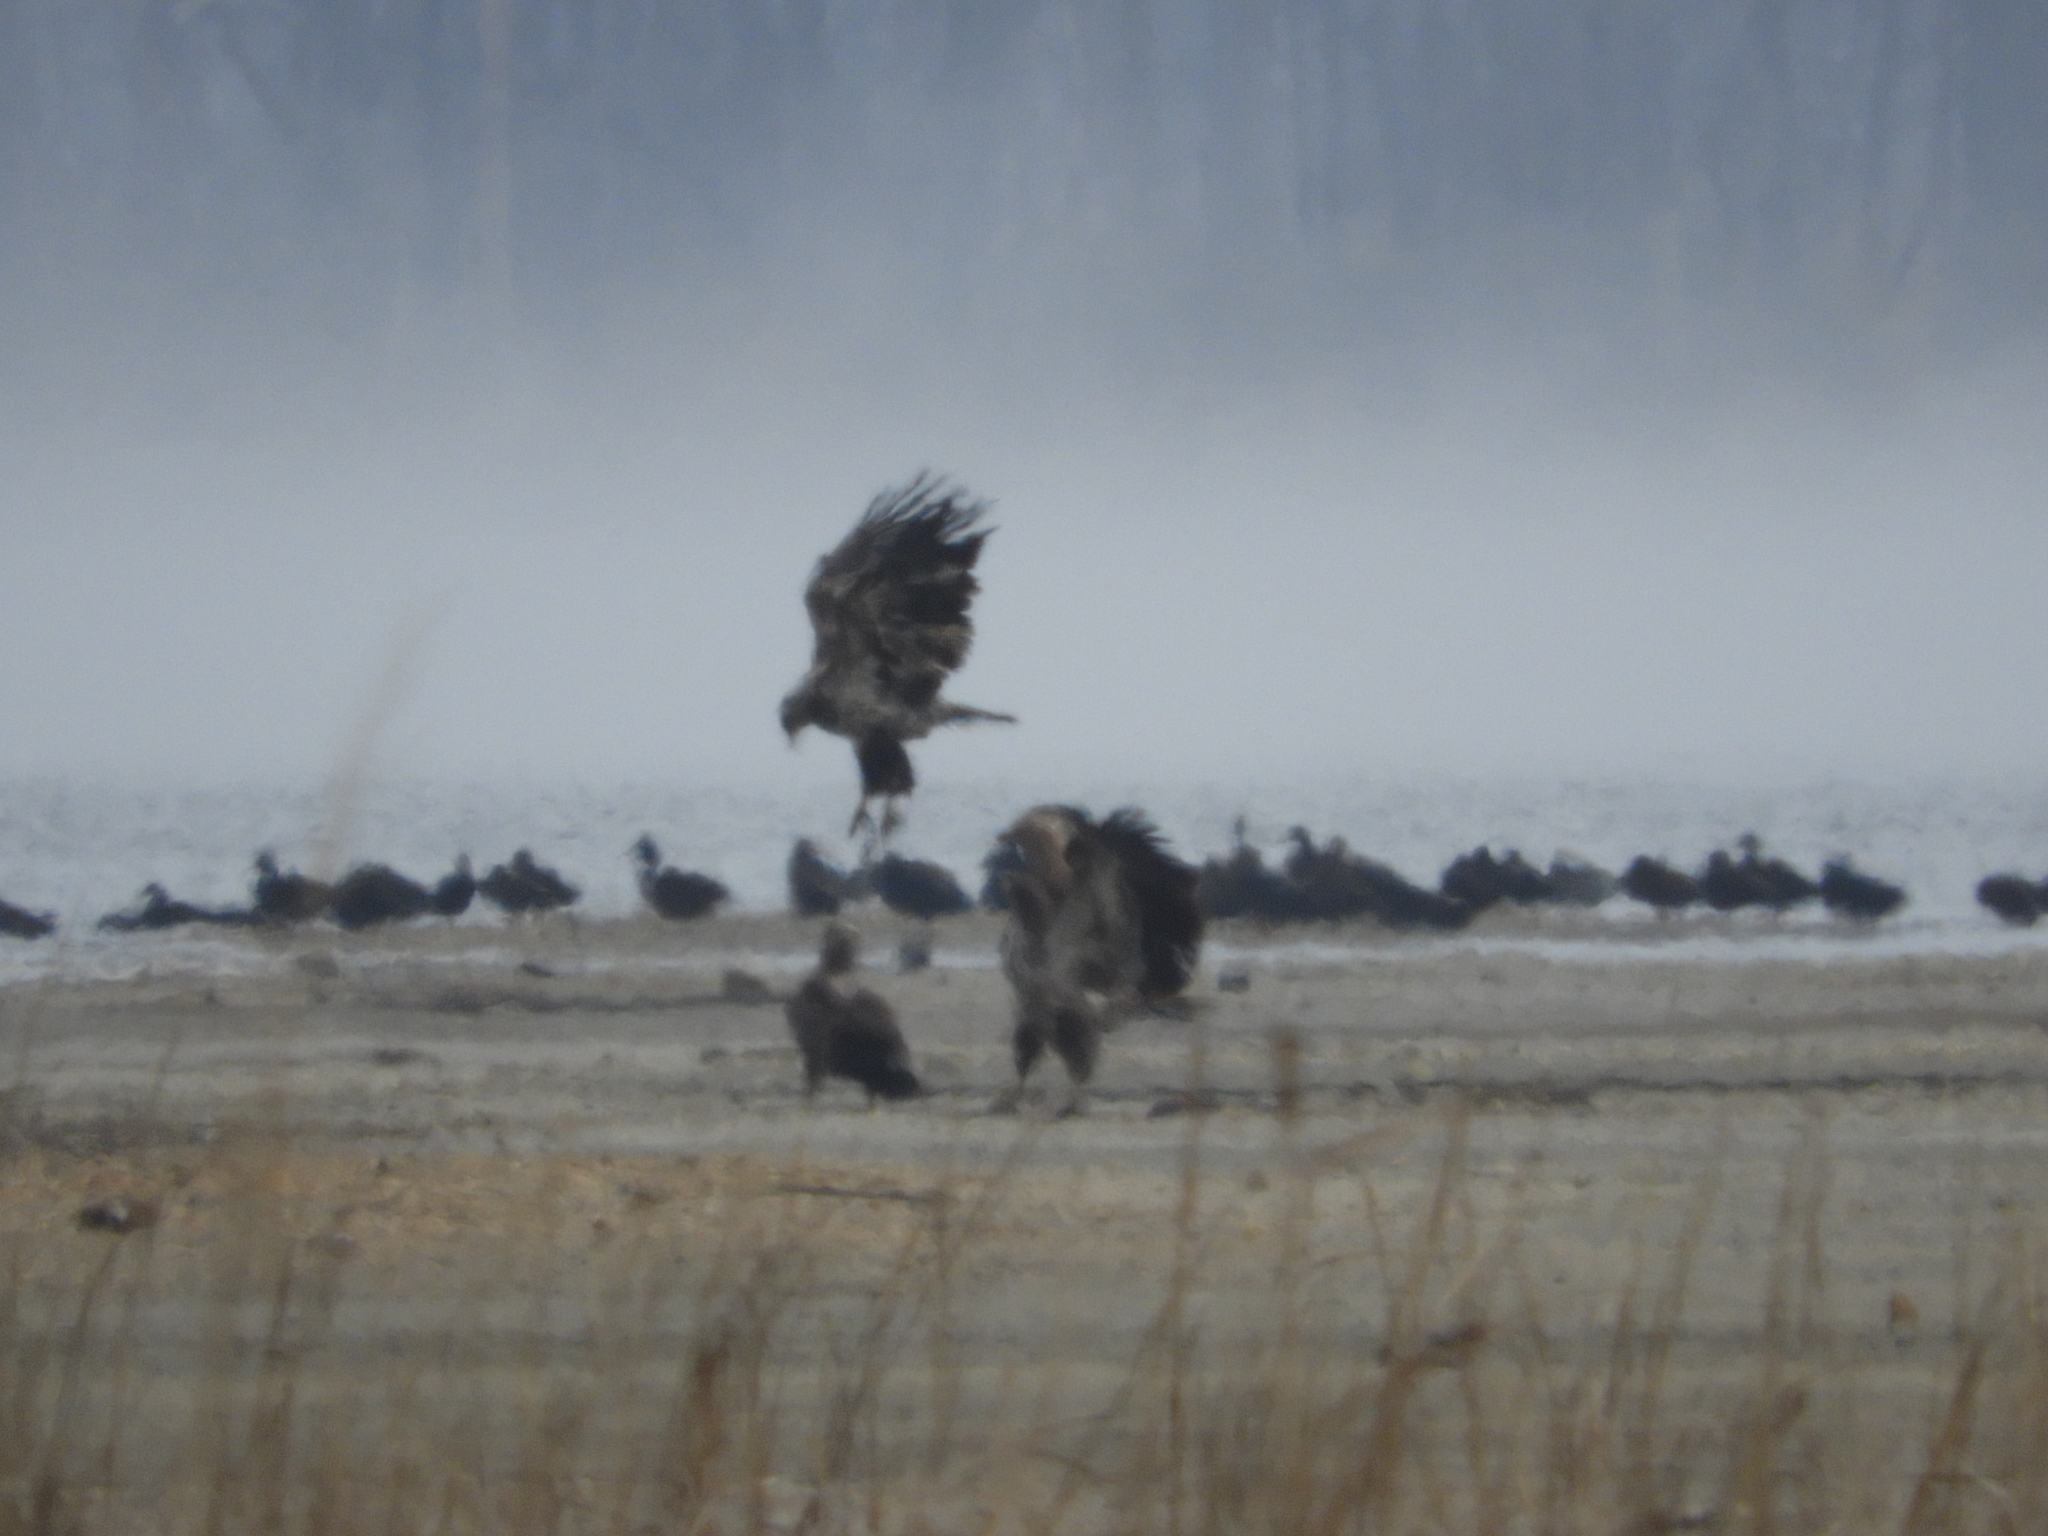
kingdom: Animalia
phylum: Chordata
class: Aves
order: Accipitriformes
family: Accipitridae
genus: Haliaeetus
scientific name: Haliaeetus leucocephalus
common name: Bald eagle
